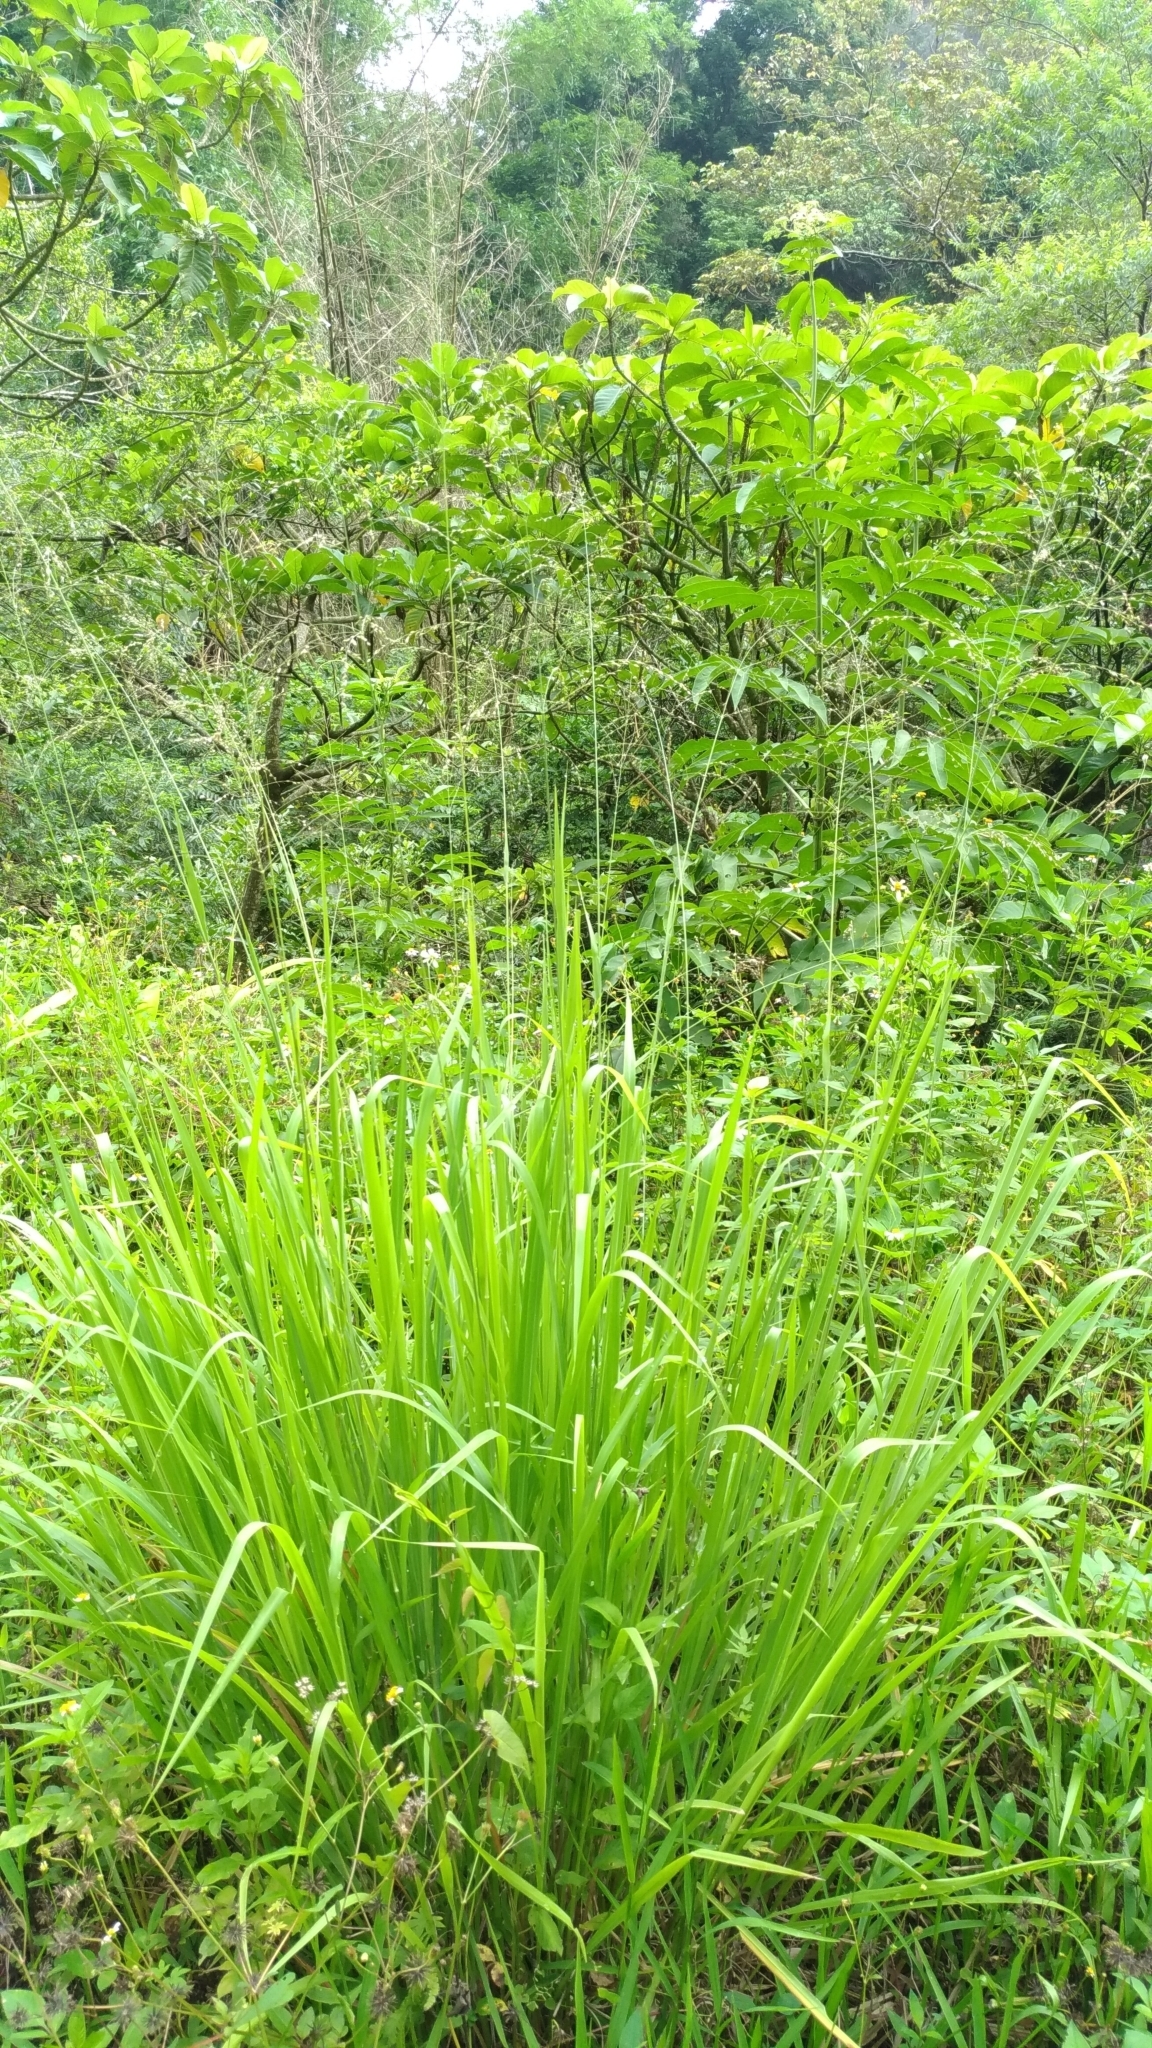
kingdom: Plantae
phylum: Tracheophyta
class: Liliopsida
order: Poales
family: Poaceae
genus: Megathyrsus
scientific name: Megathyrsus maximus
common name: Guineagrass
